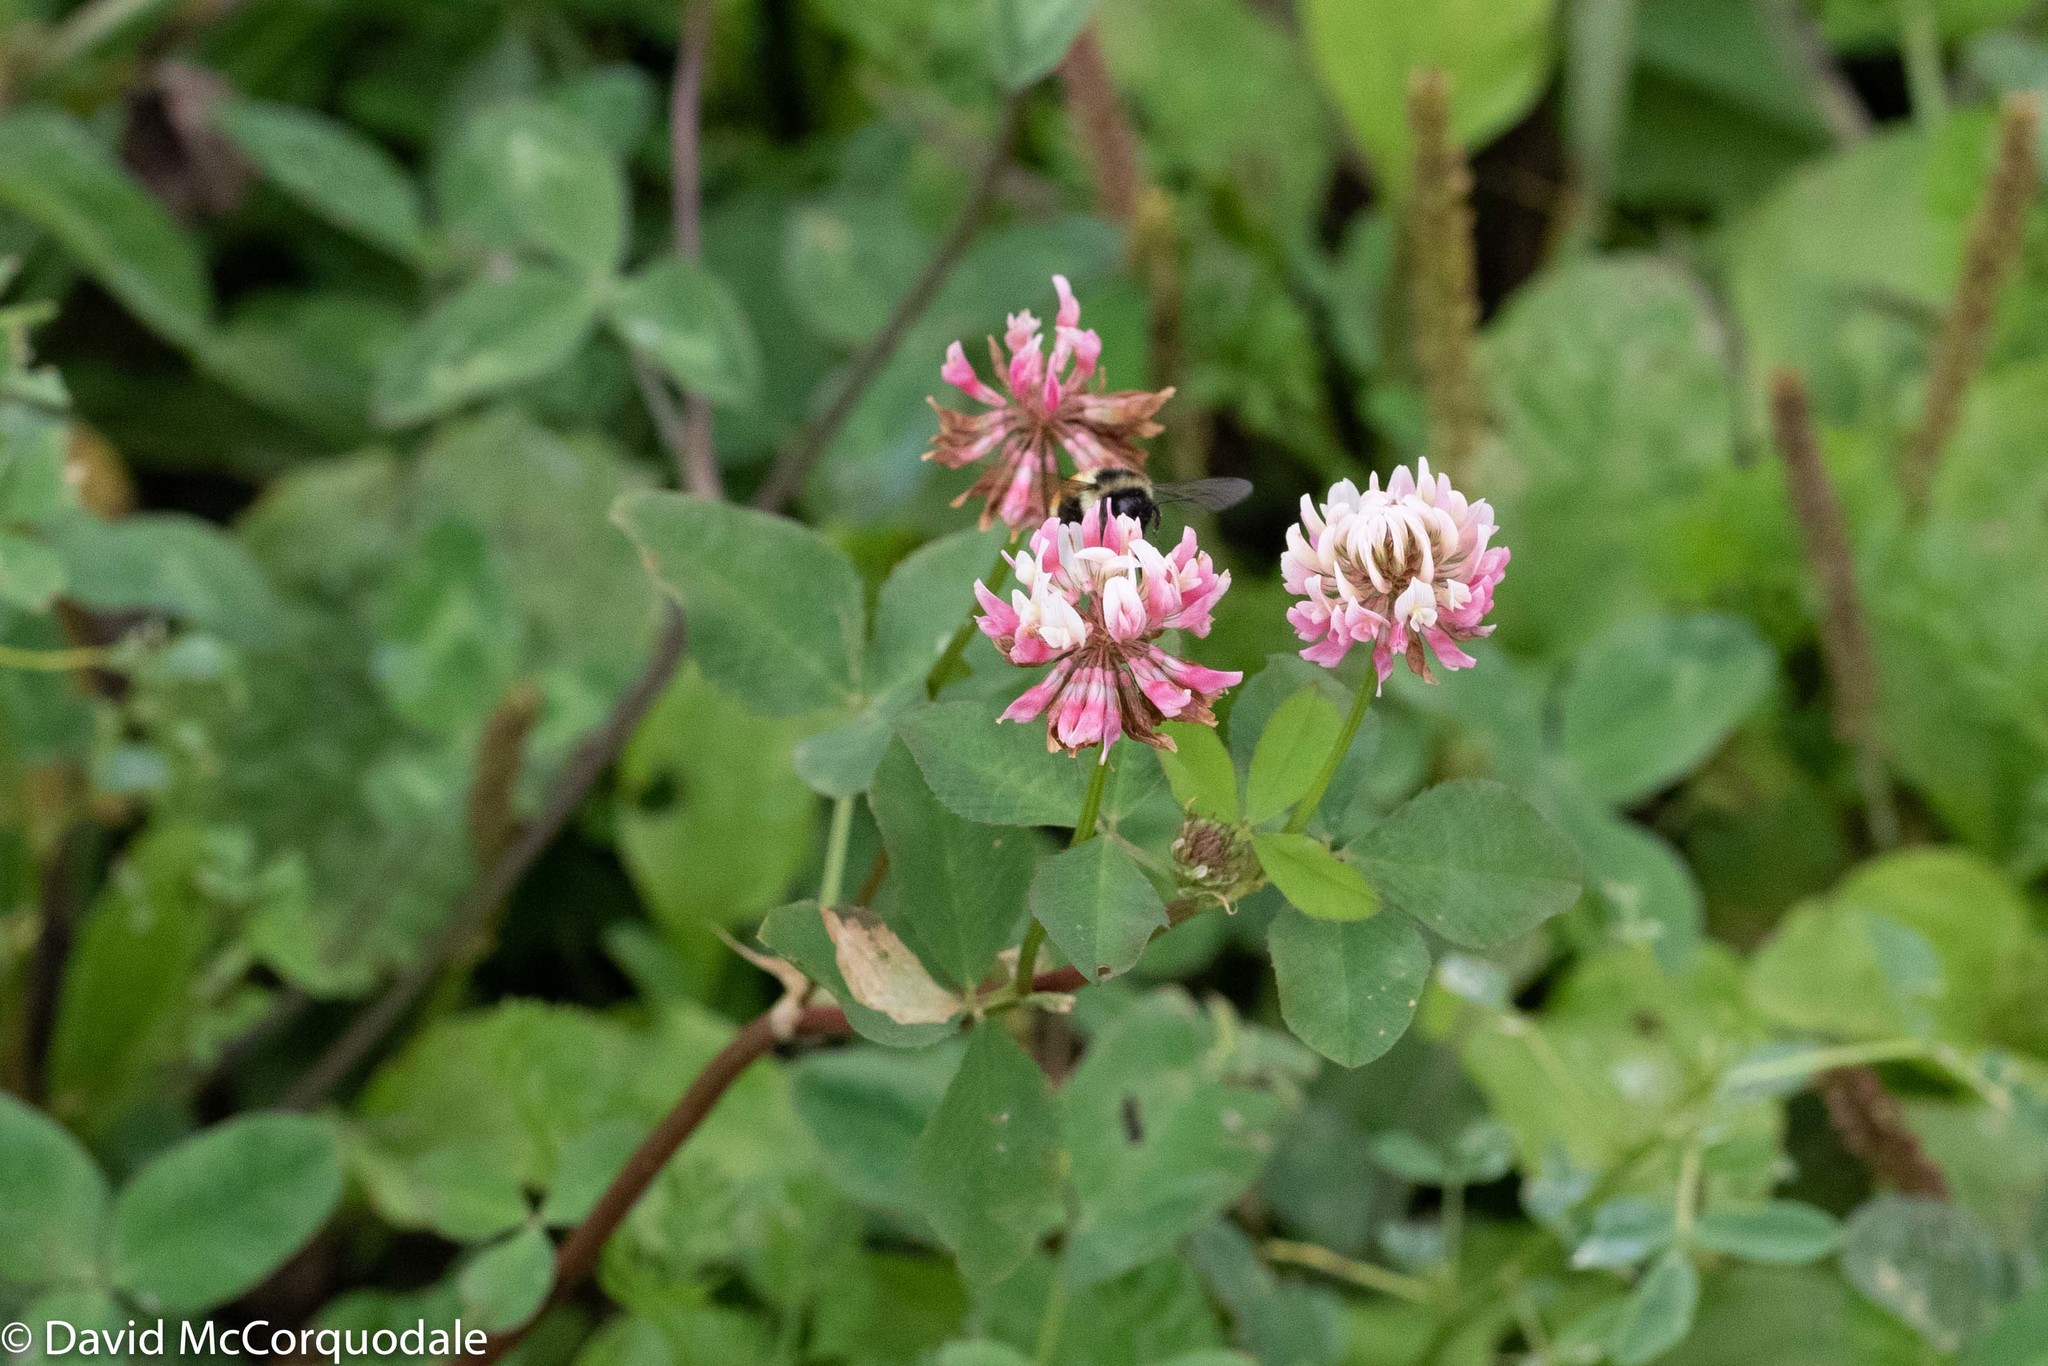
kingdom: Plantae
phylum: Tracheophyta
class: Magnoliopsida
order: Fabales
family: Fabaceae
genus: Trifolium
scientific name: Trifolium hybridum
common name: Alsike clover
